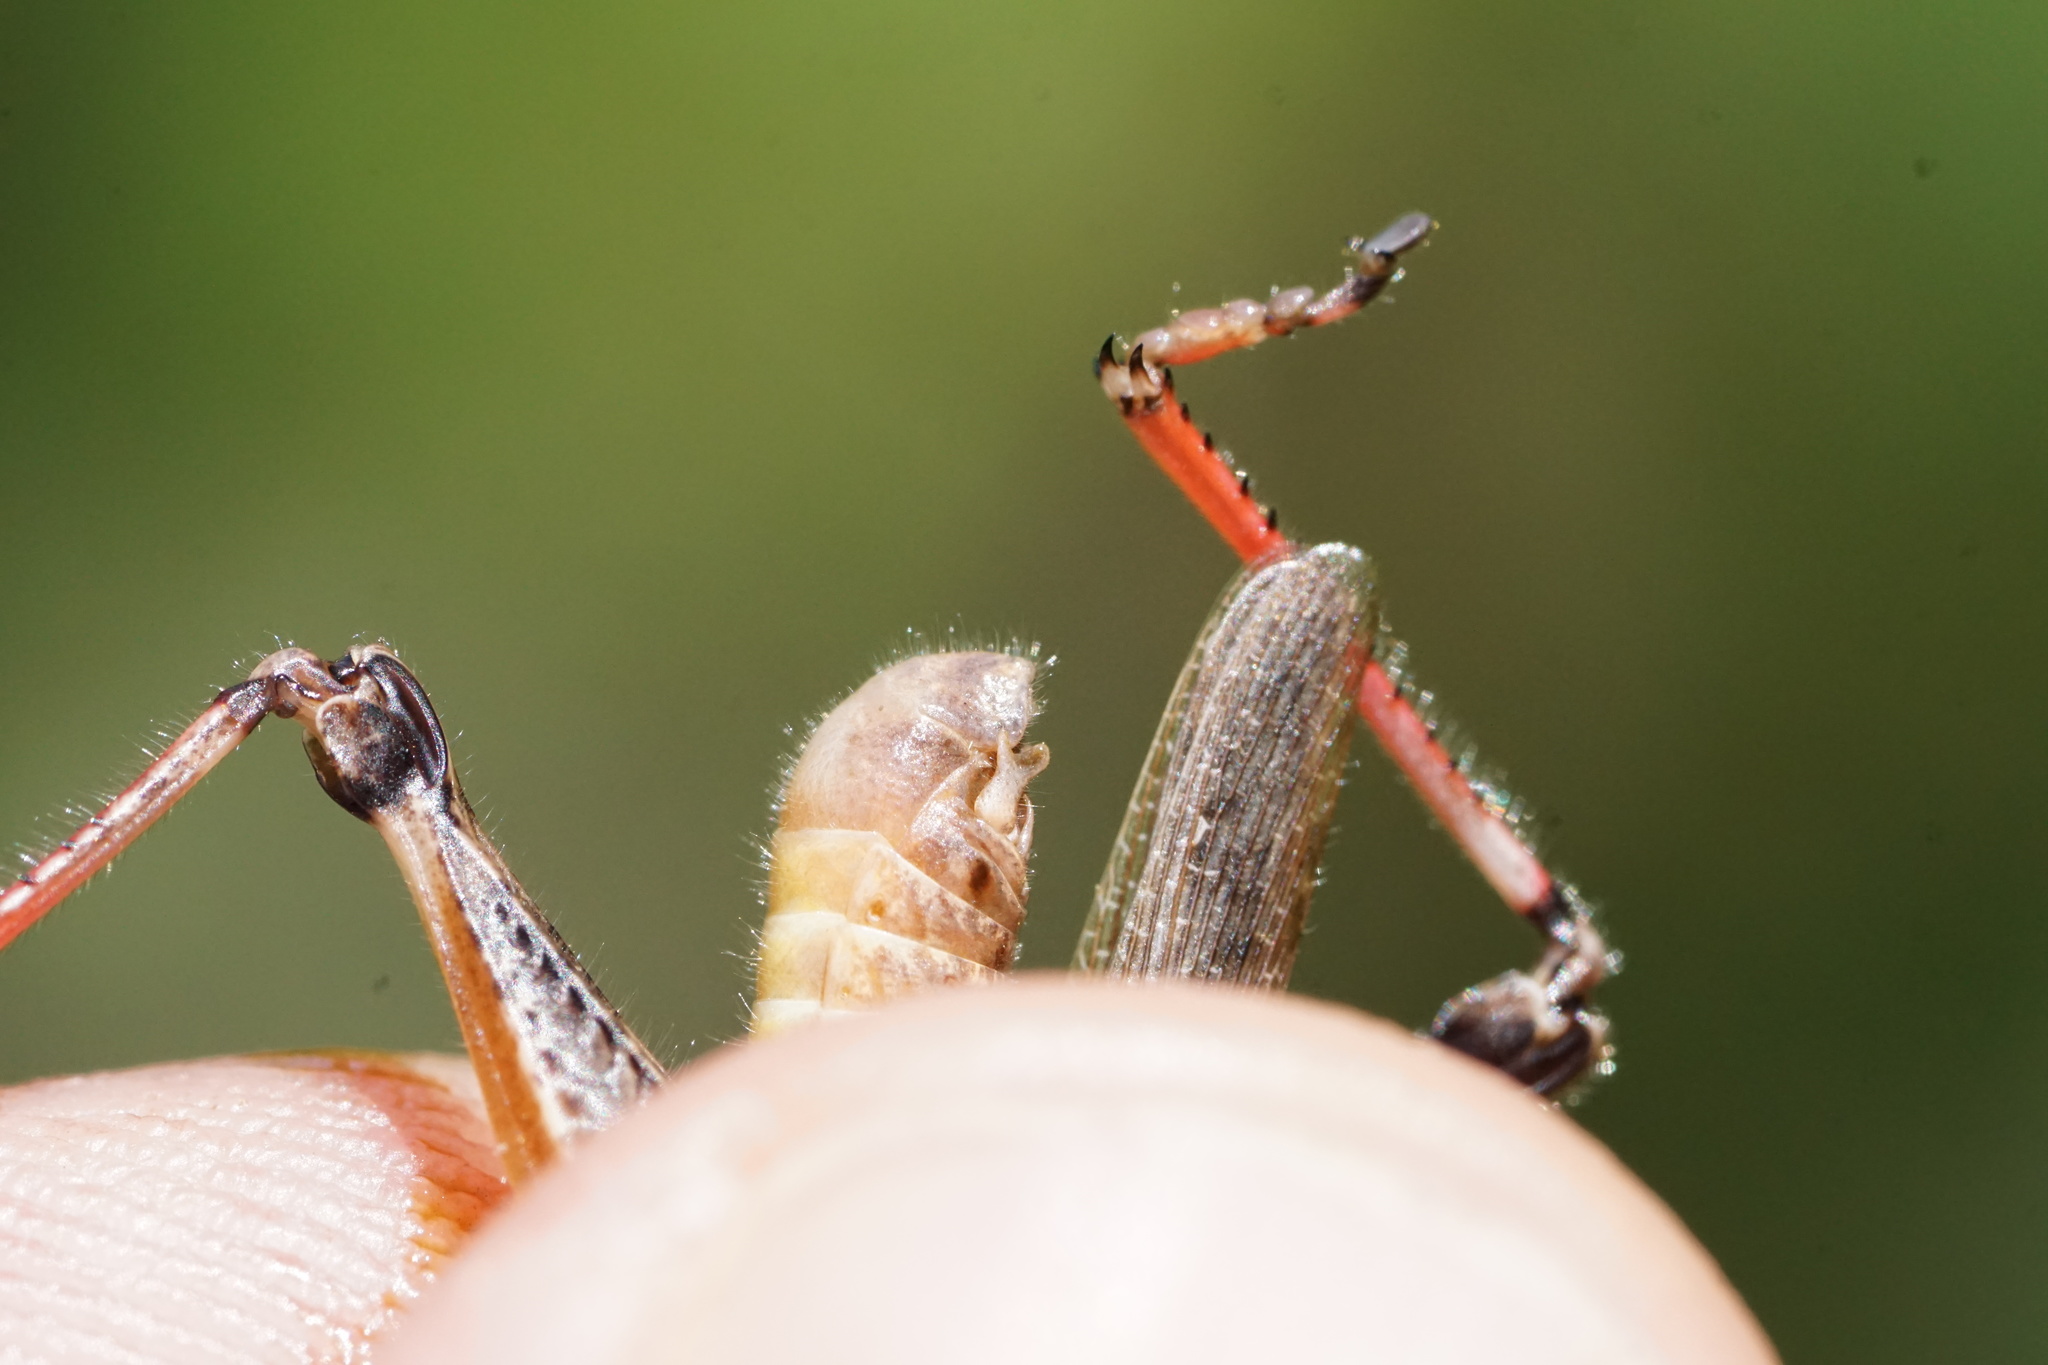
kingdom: Animalia
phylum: Arthropoda
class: Insecta
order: Orthoptera
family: Acrididae
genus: Melanoplus
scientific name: Melanoplus keeleri
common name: Keeler grasshopper
